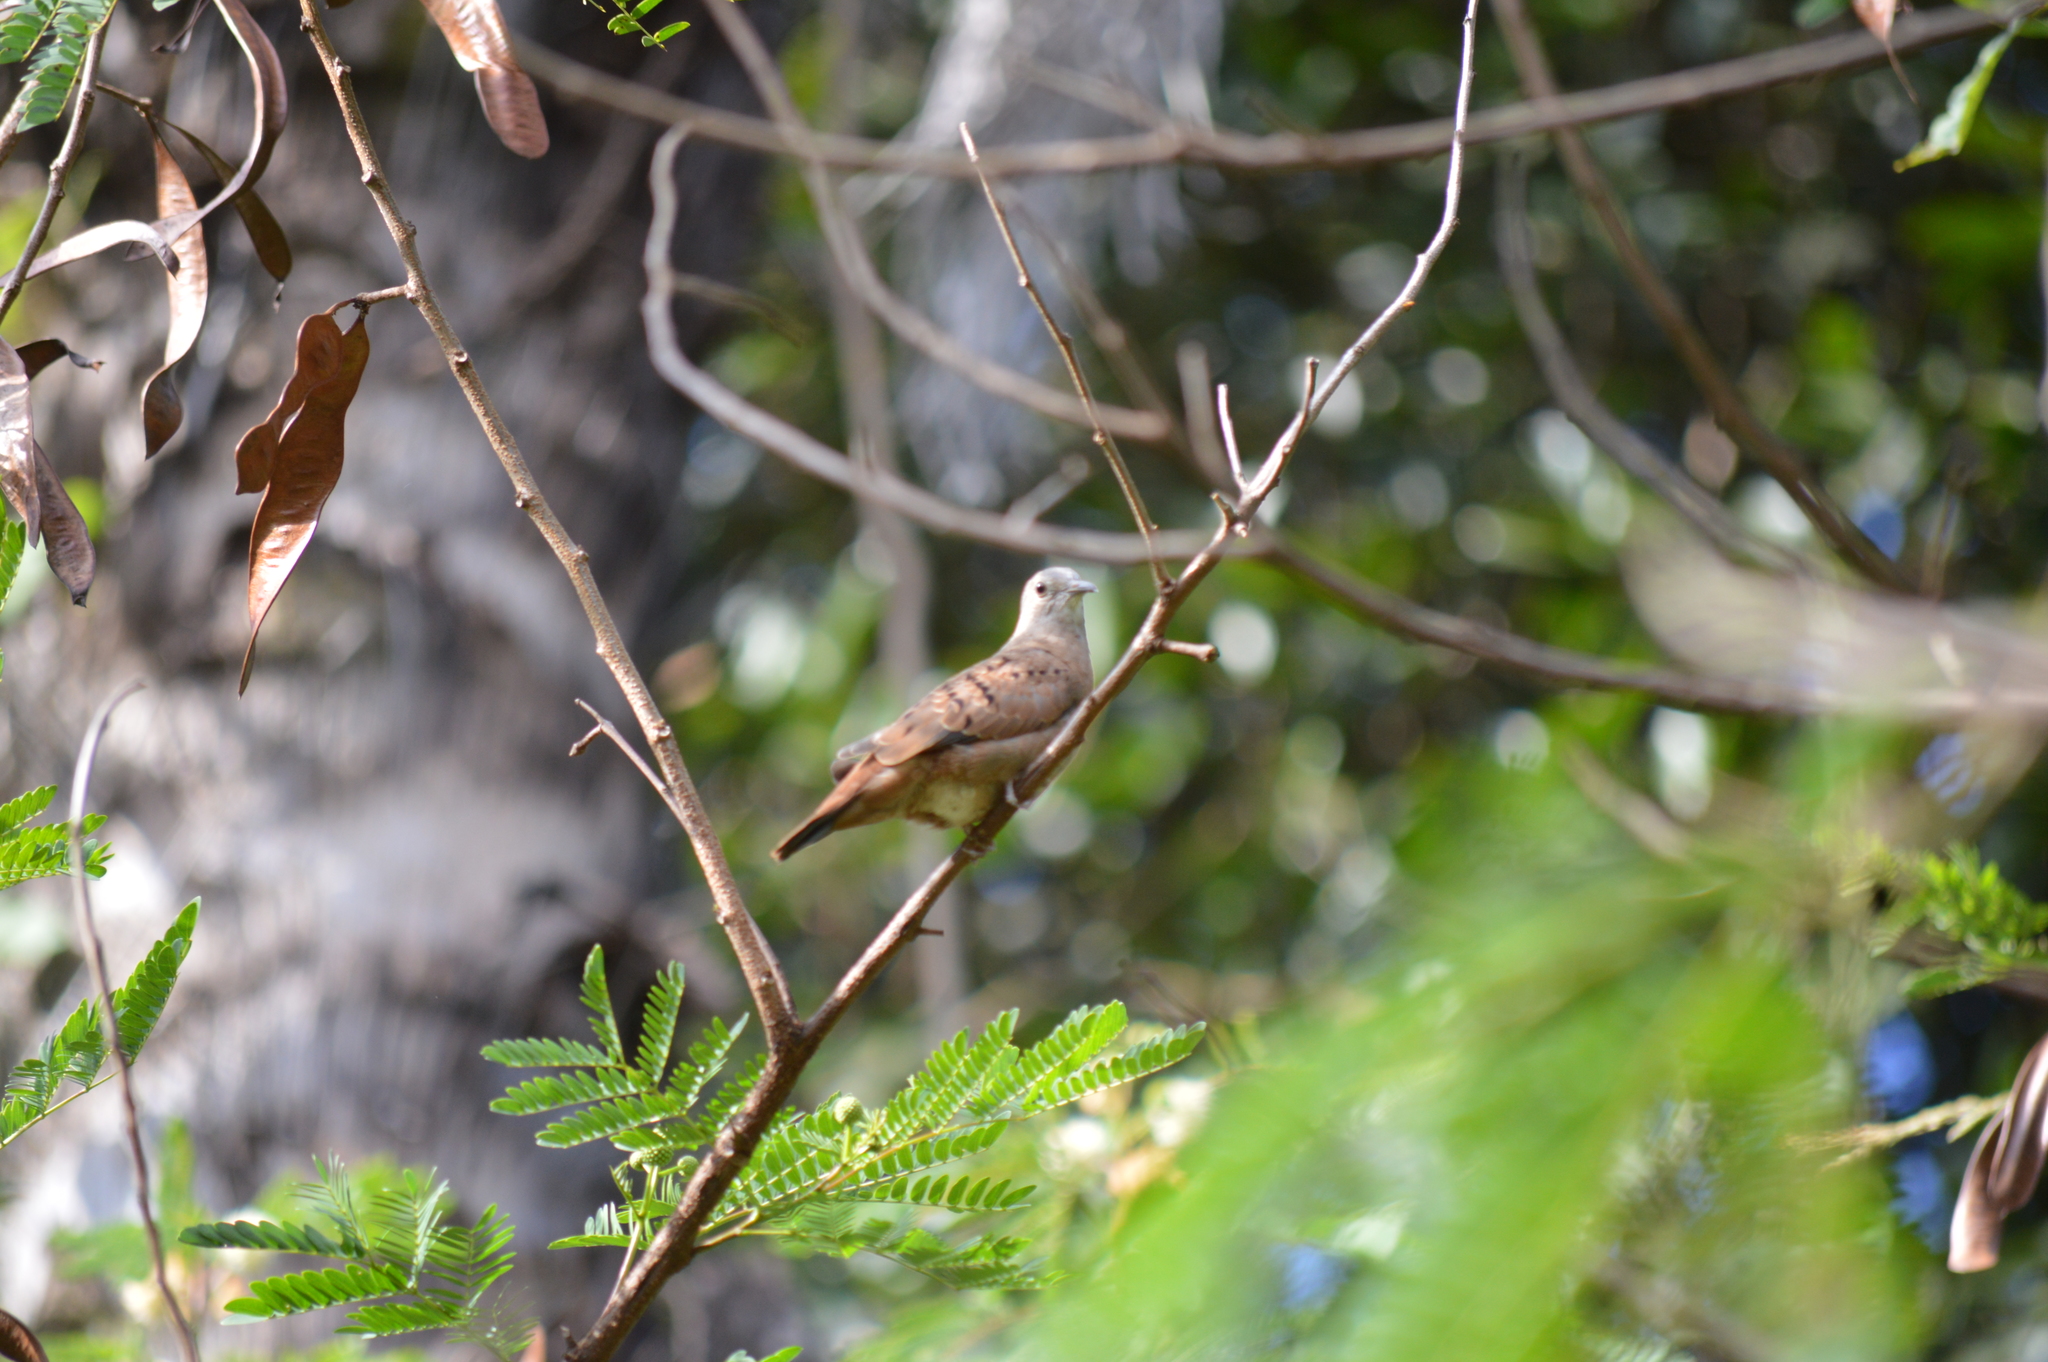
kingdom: Animalia
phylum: Chordata
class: Aves
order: Columbiformes
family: Columbidae
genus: Columbina
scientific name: Columbina talpacoti
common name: Ruddy ground dove
